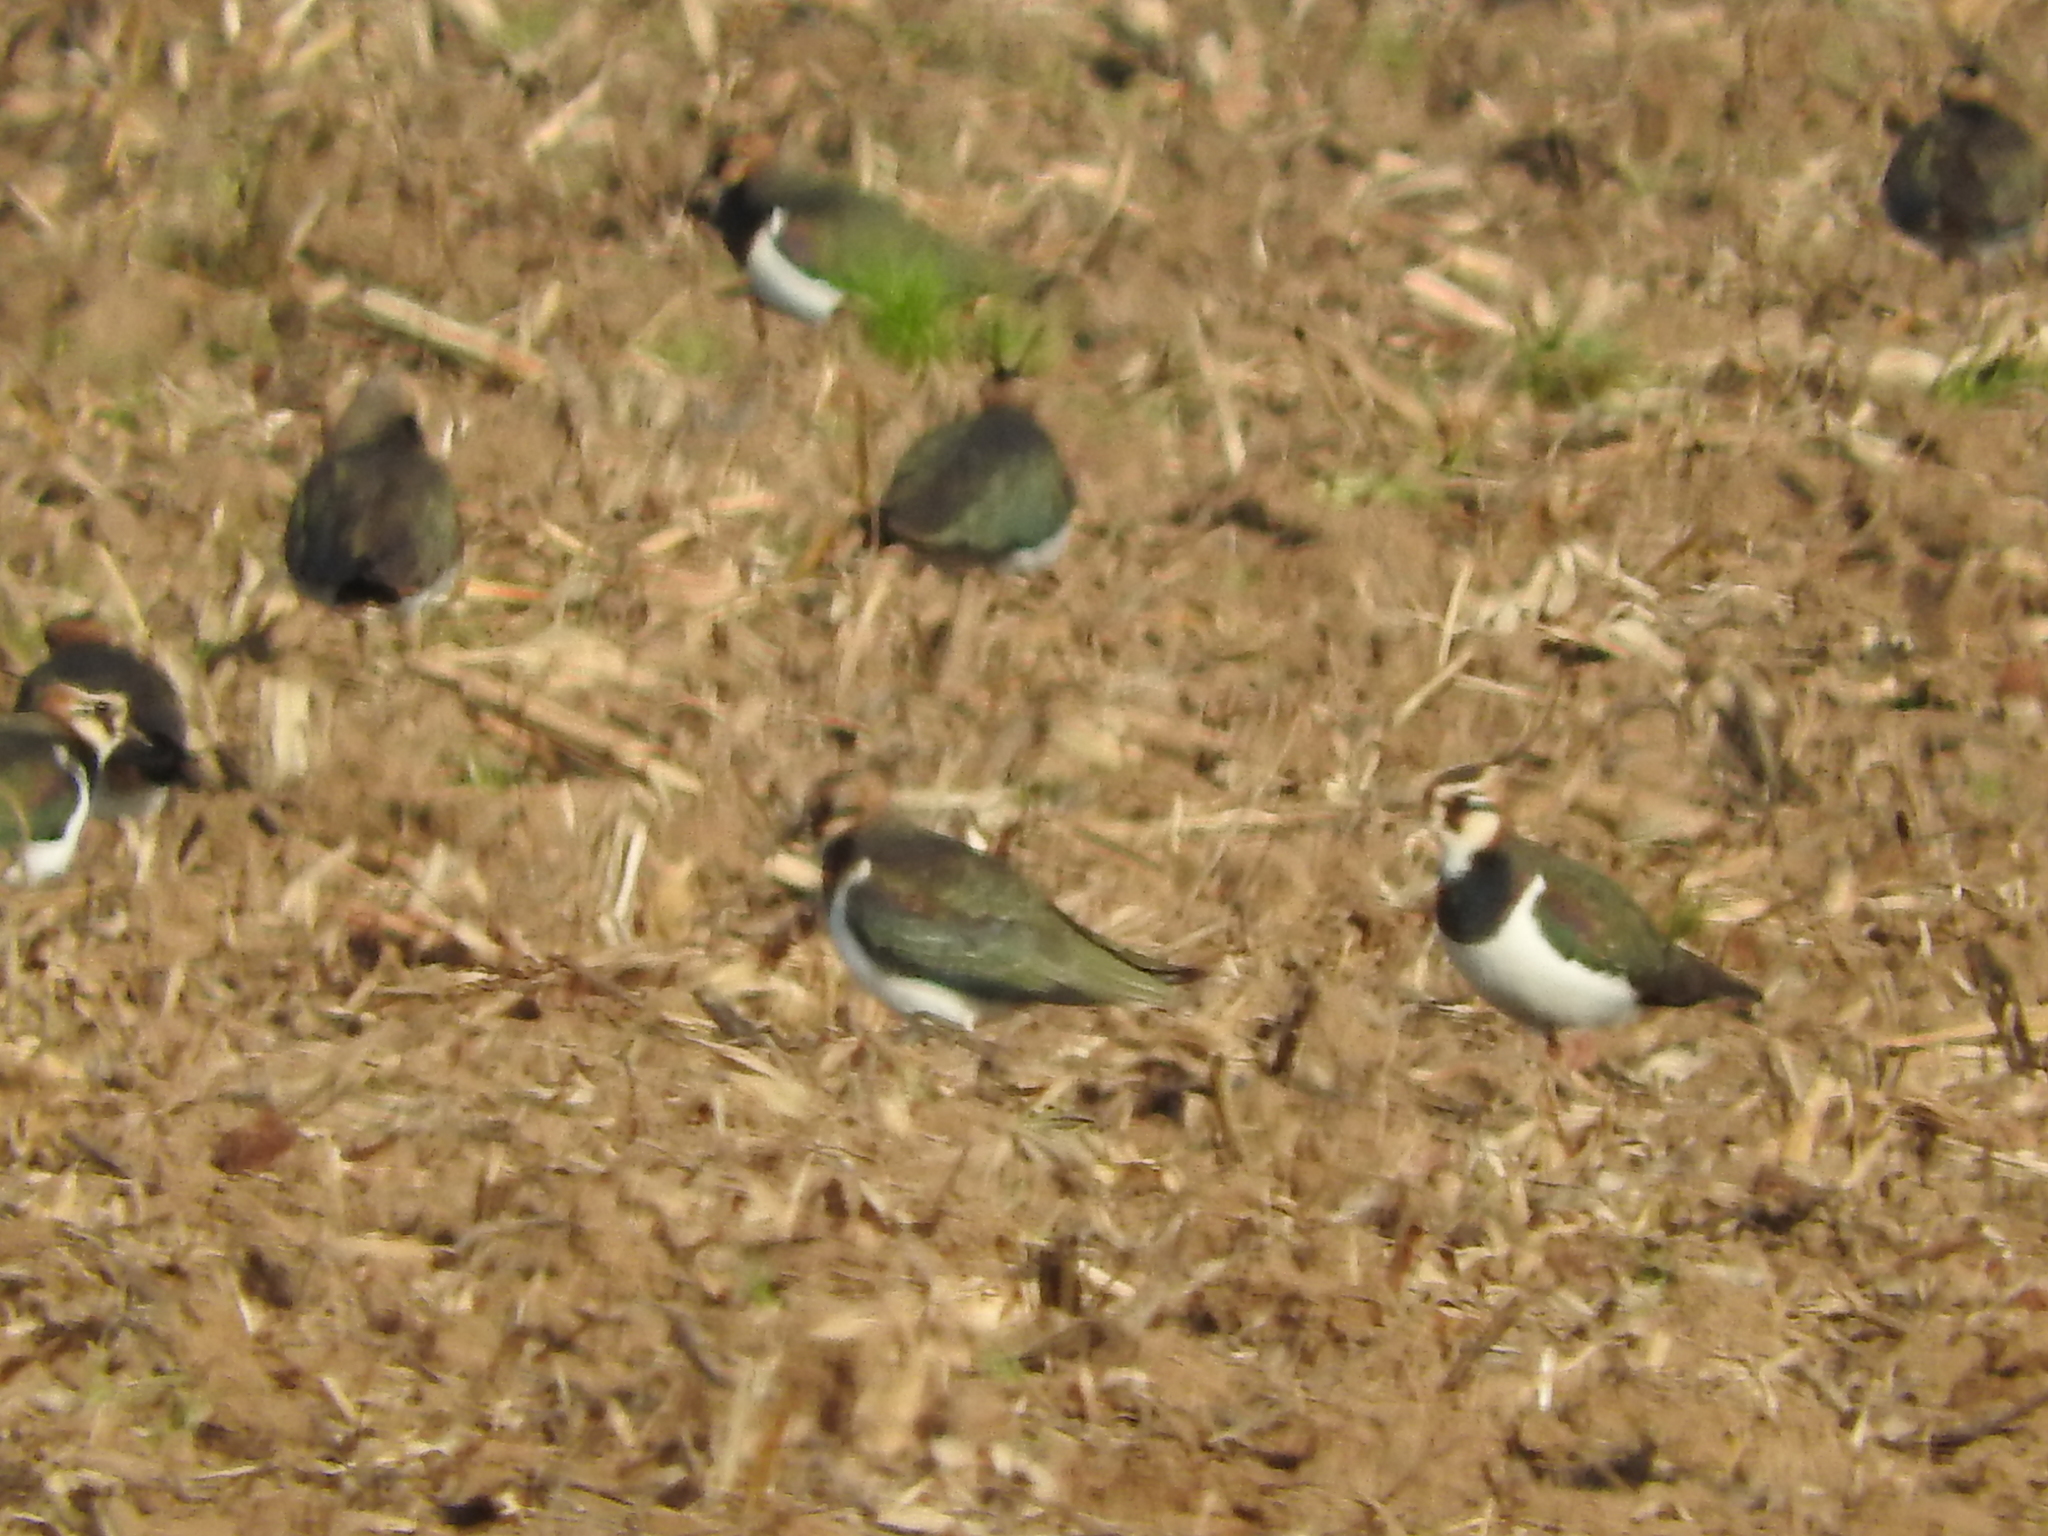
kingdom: Animalia
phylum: Chordata
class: Aves
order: Charadriiformes
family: Charadriidae
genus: Vanellus
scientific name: Vanellus vanellus
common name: Northern lapwing
